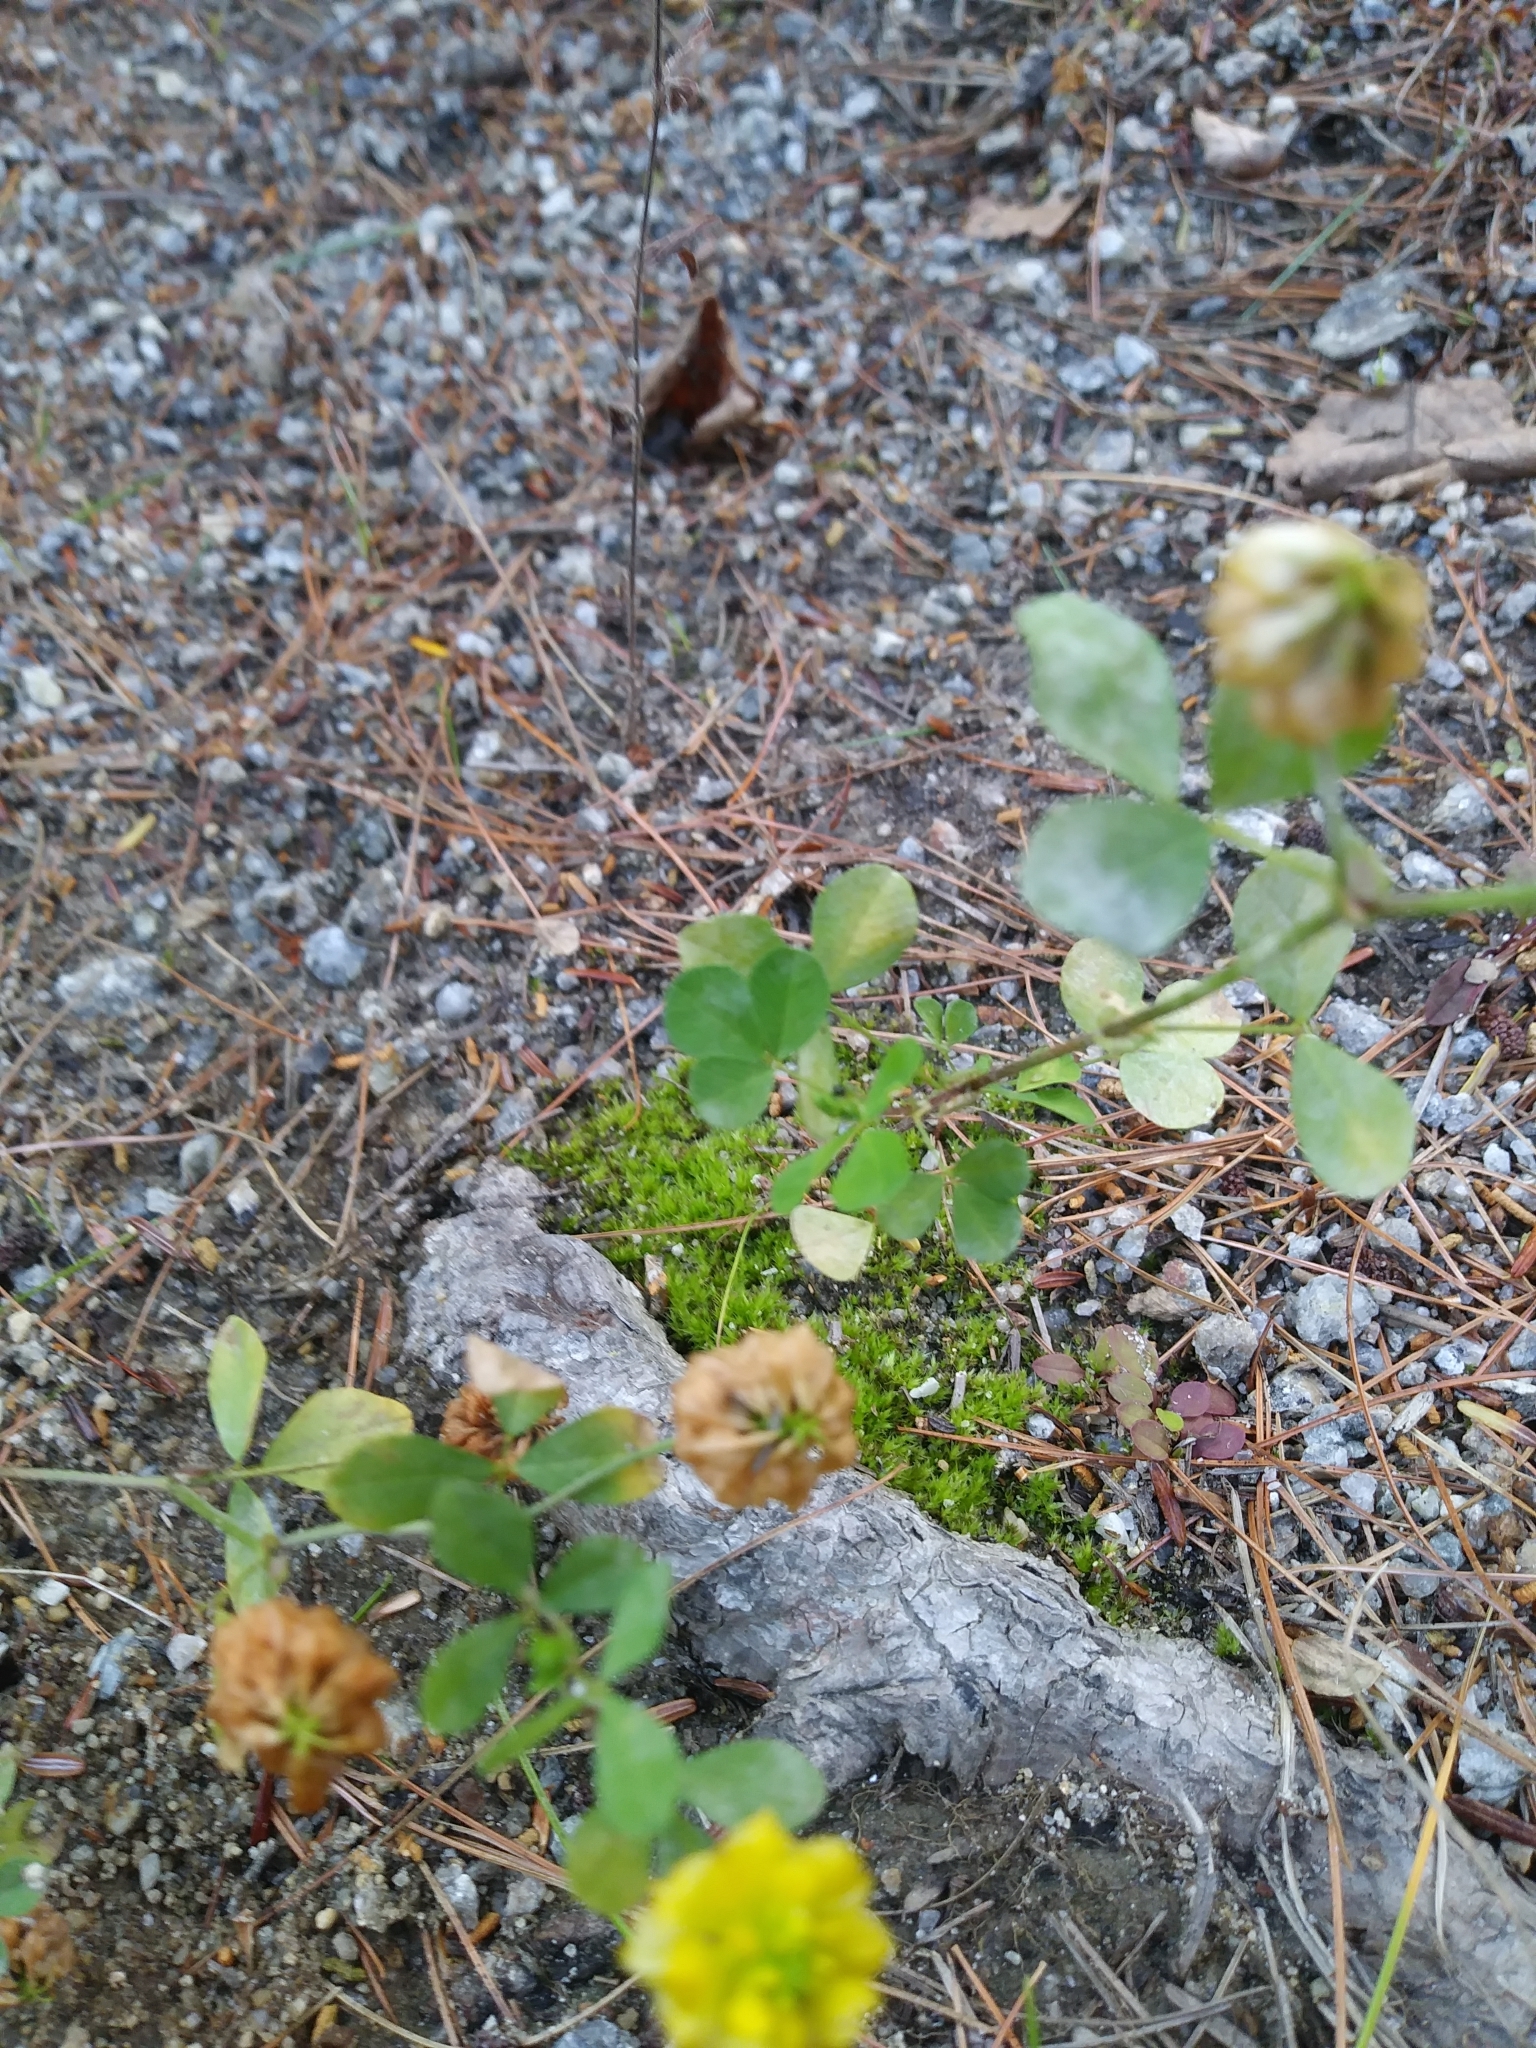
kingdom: Plantae
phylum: Tracheophyta
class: Magnoliopsida
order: Fabales
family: Fabaceae
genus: Trifolium
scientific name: Trifolium campestre
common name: Field clover
